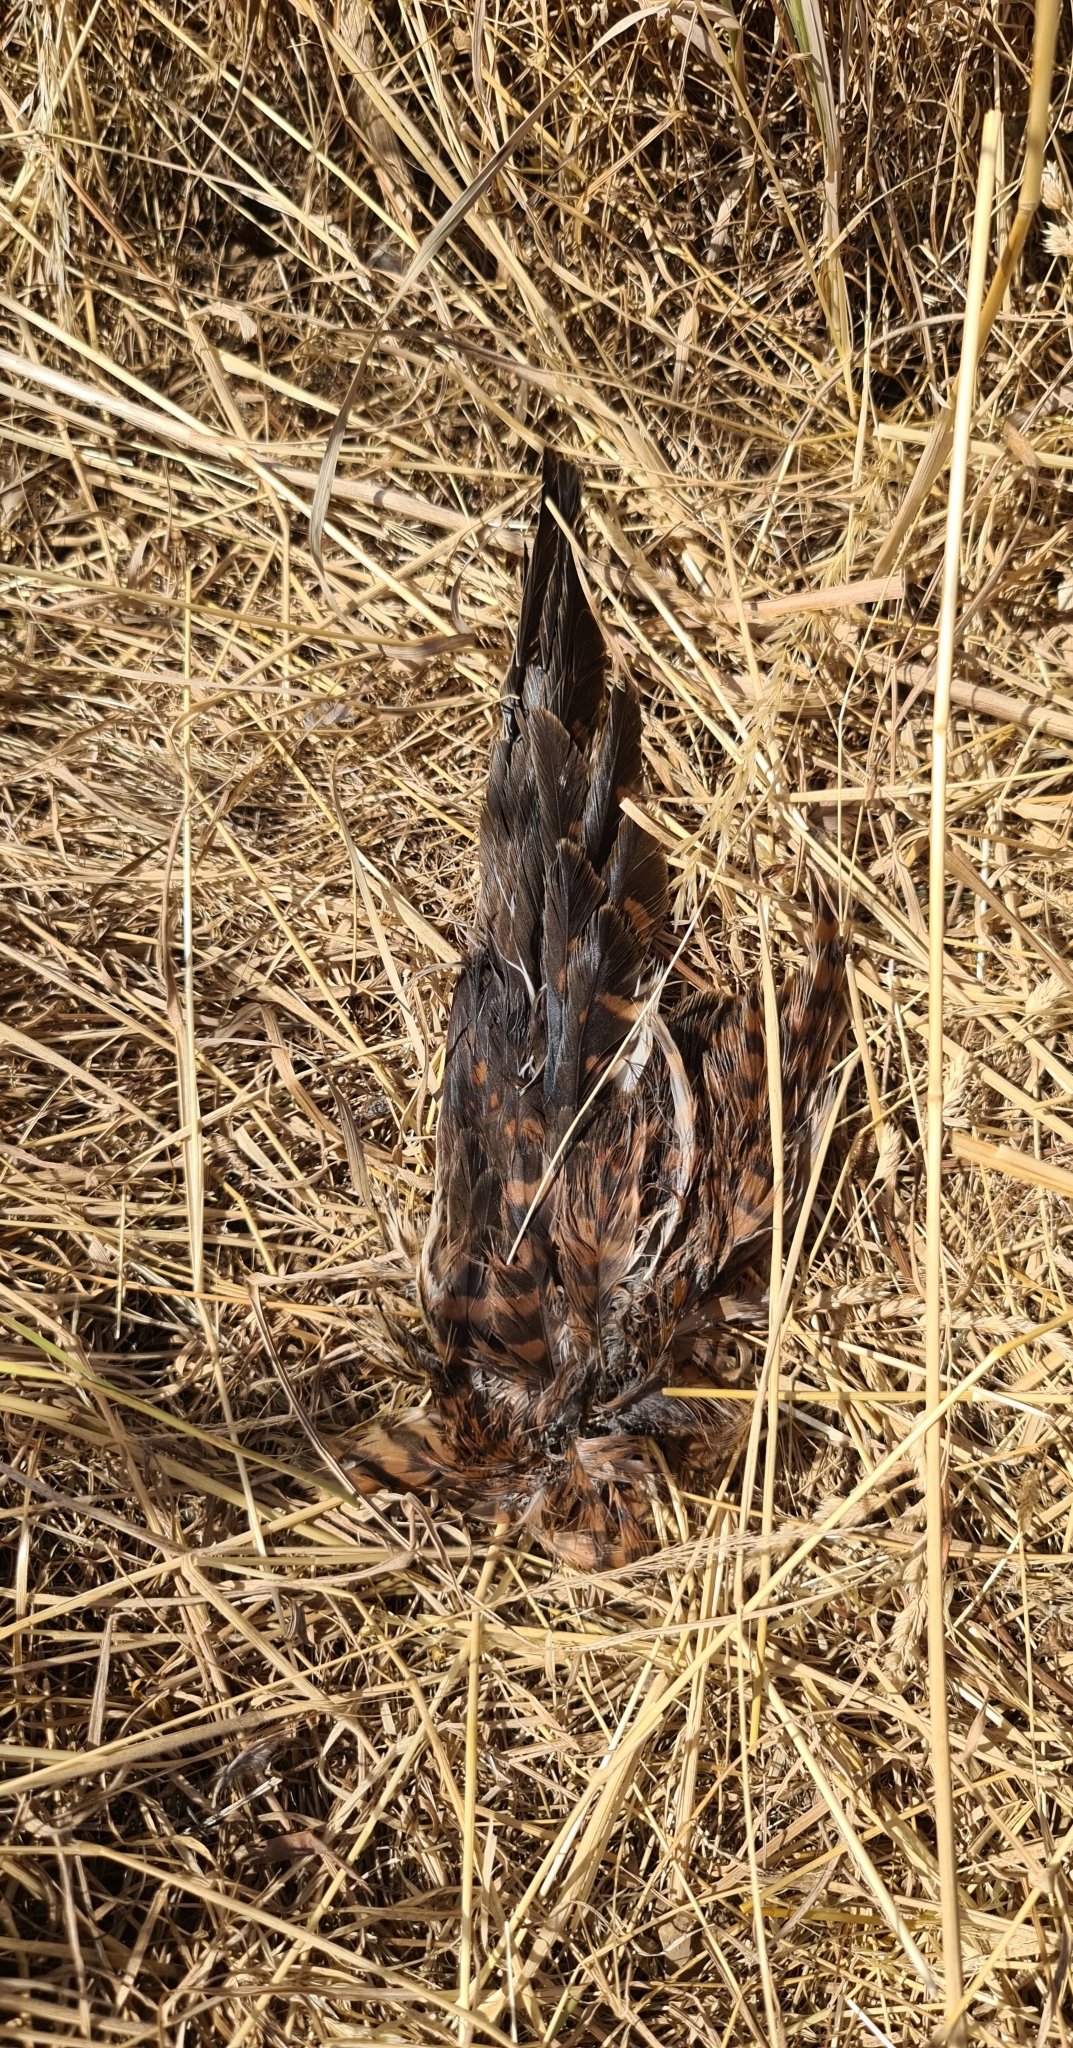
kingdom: Animalia
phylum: Chordata
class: Aves
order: Falconiformes
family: Falconidae
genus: Falco
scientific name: Falco tinnunculus
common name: Common kestrel
